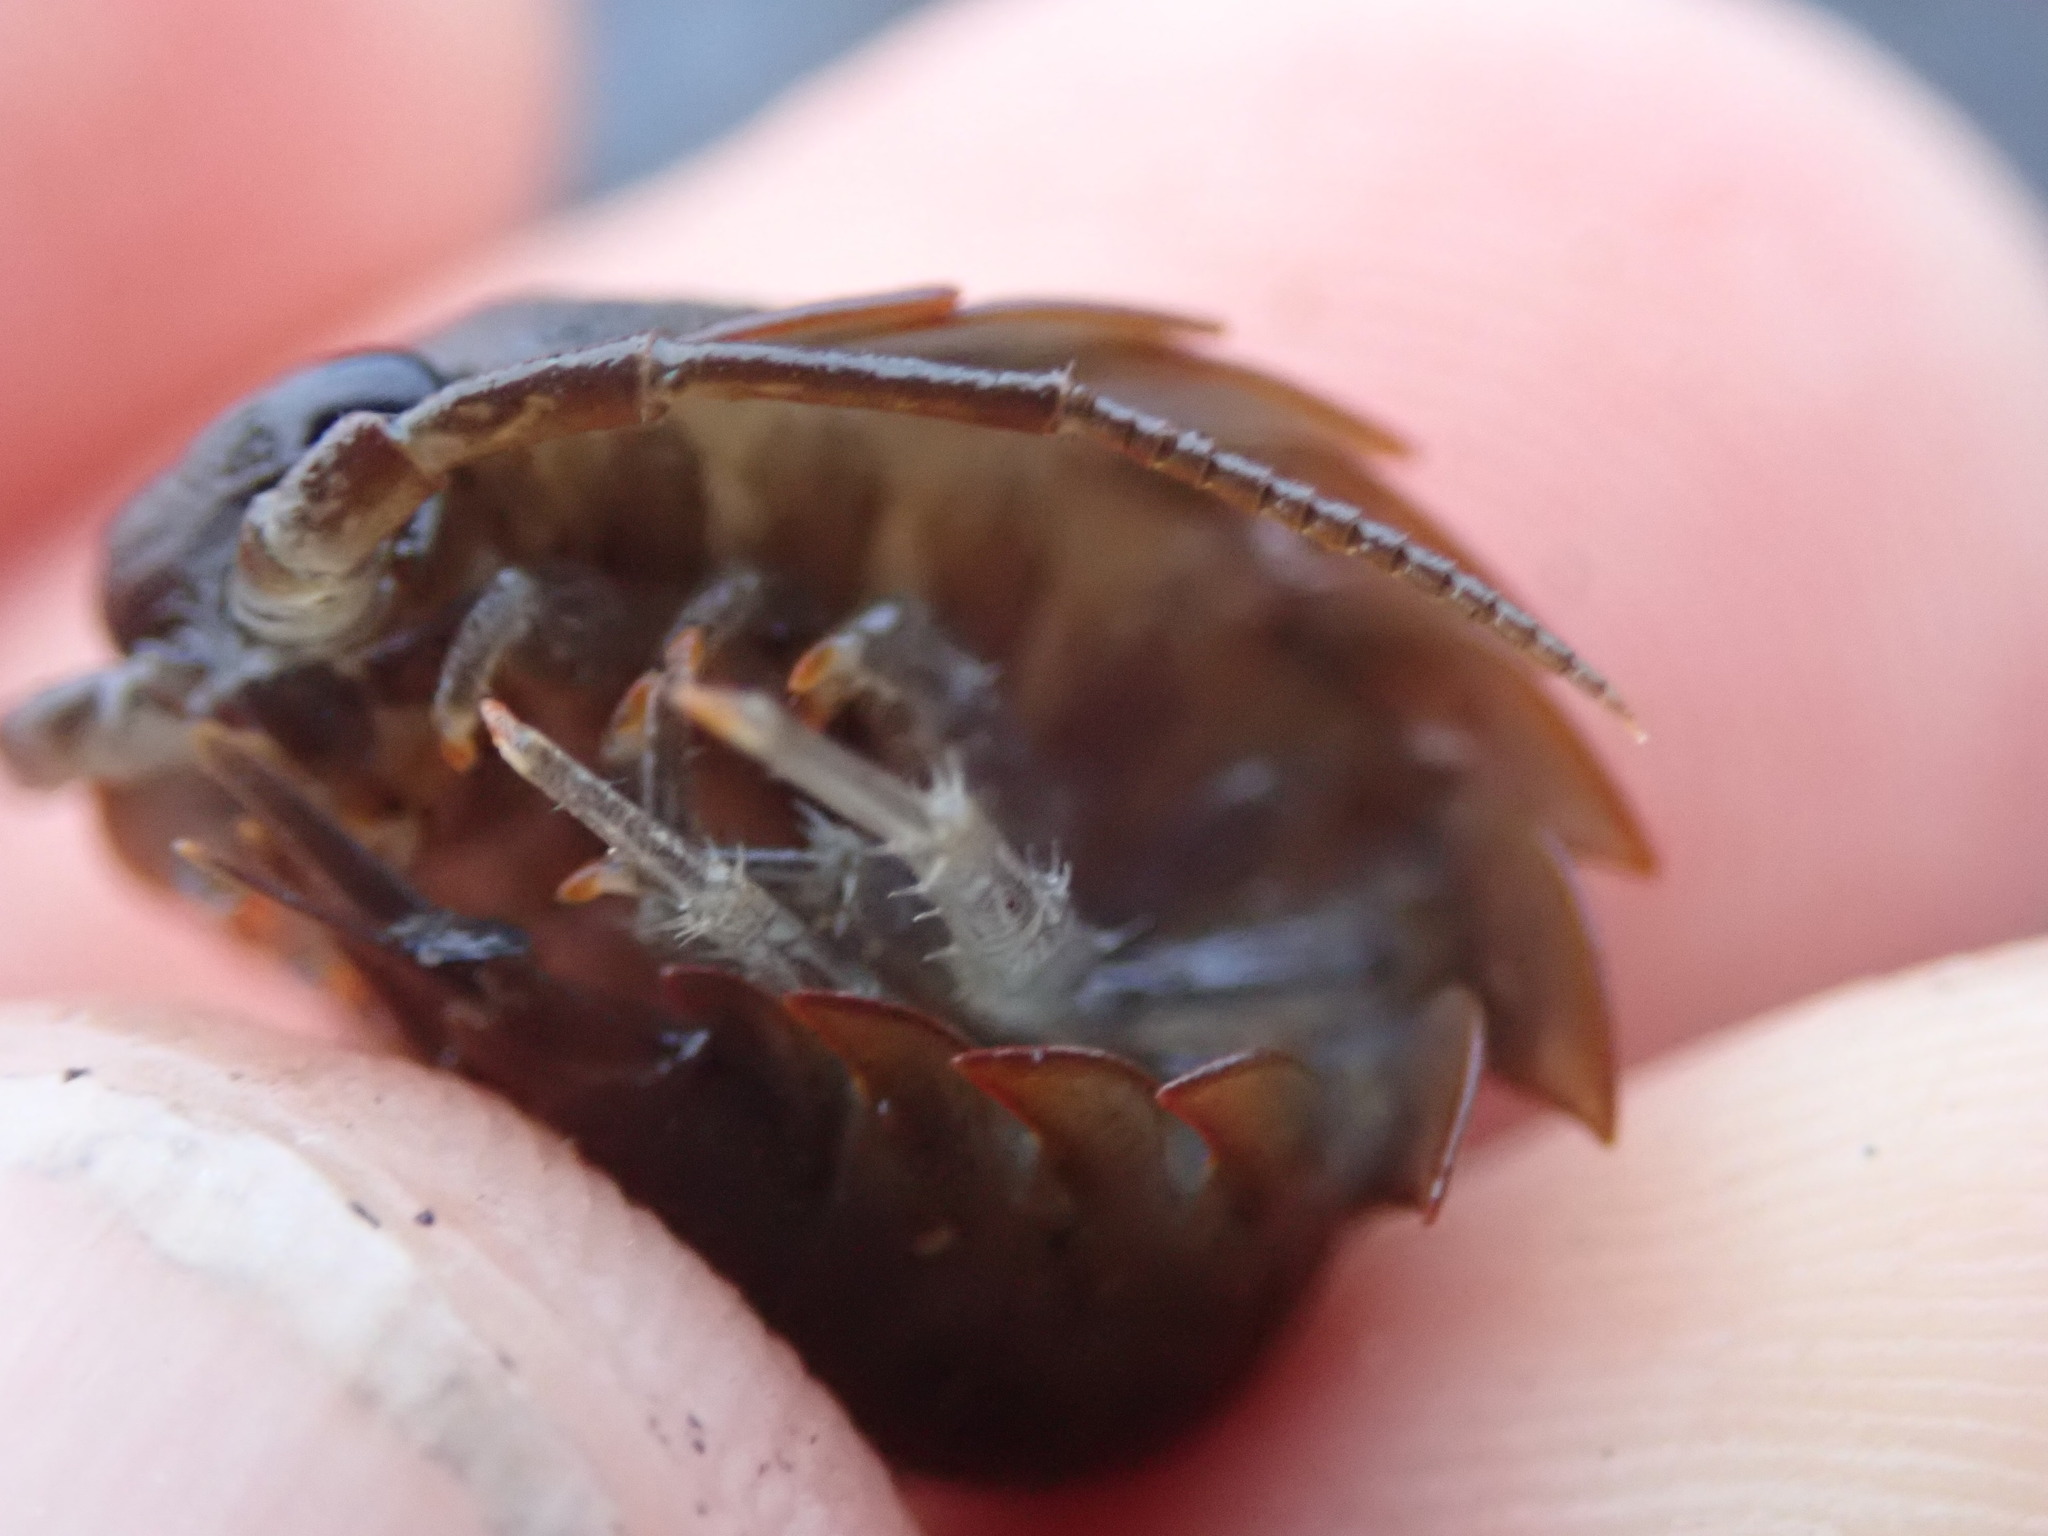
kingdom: Animalia
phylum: Arthropoda
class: Malacostraca
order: Isopoda
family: Ligiidae
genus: Ligia
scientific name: Ligia pallasii
